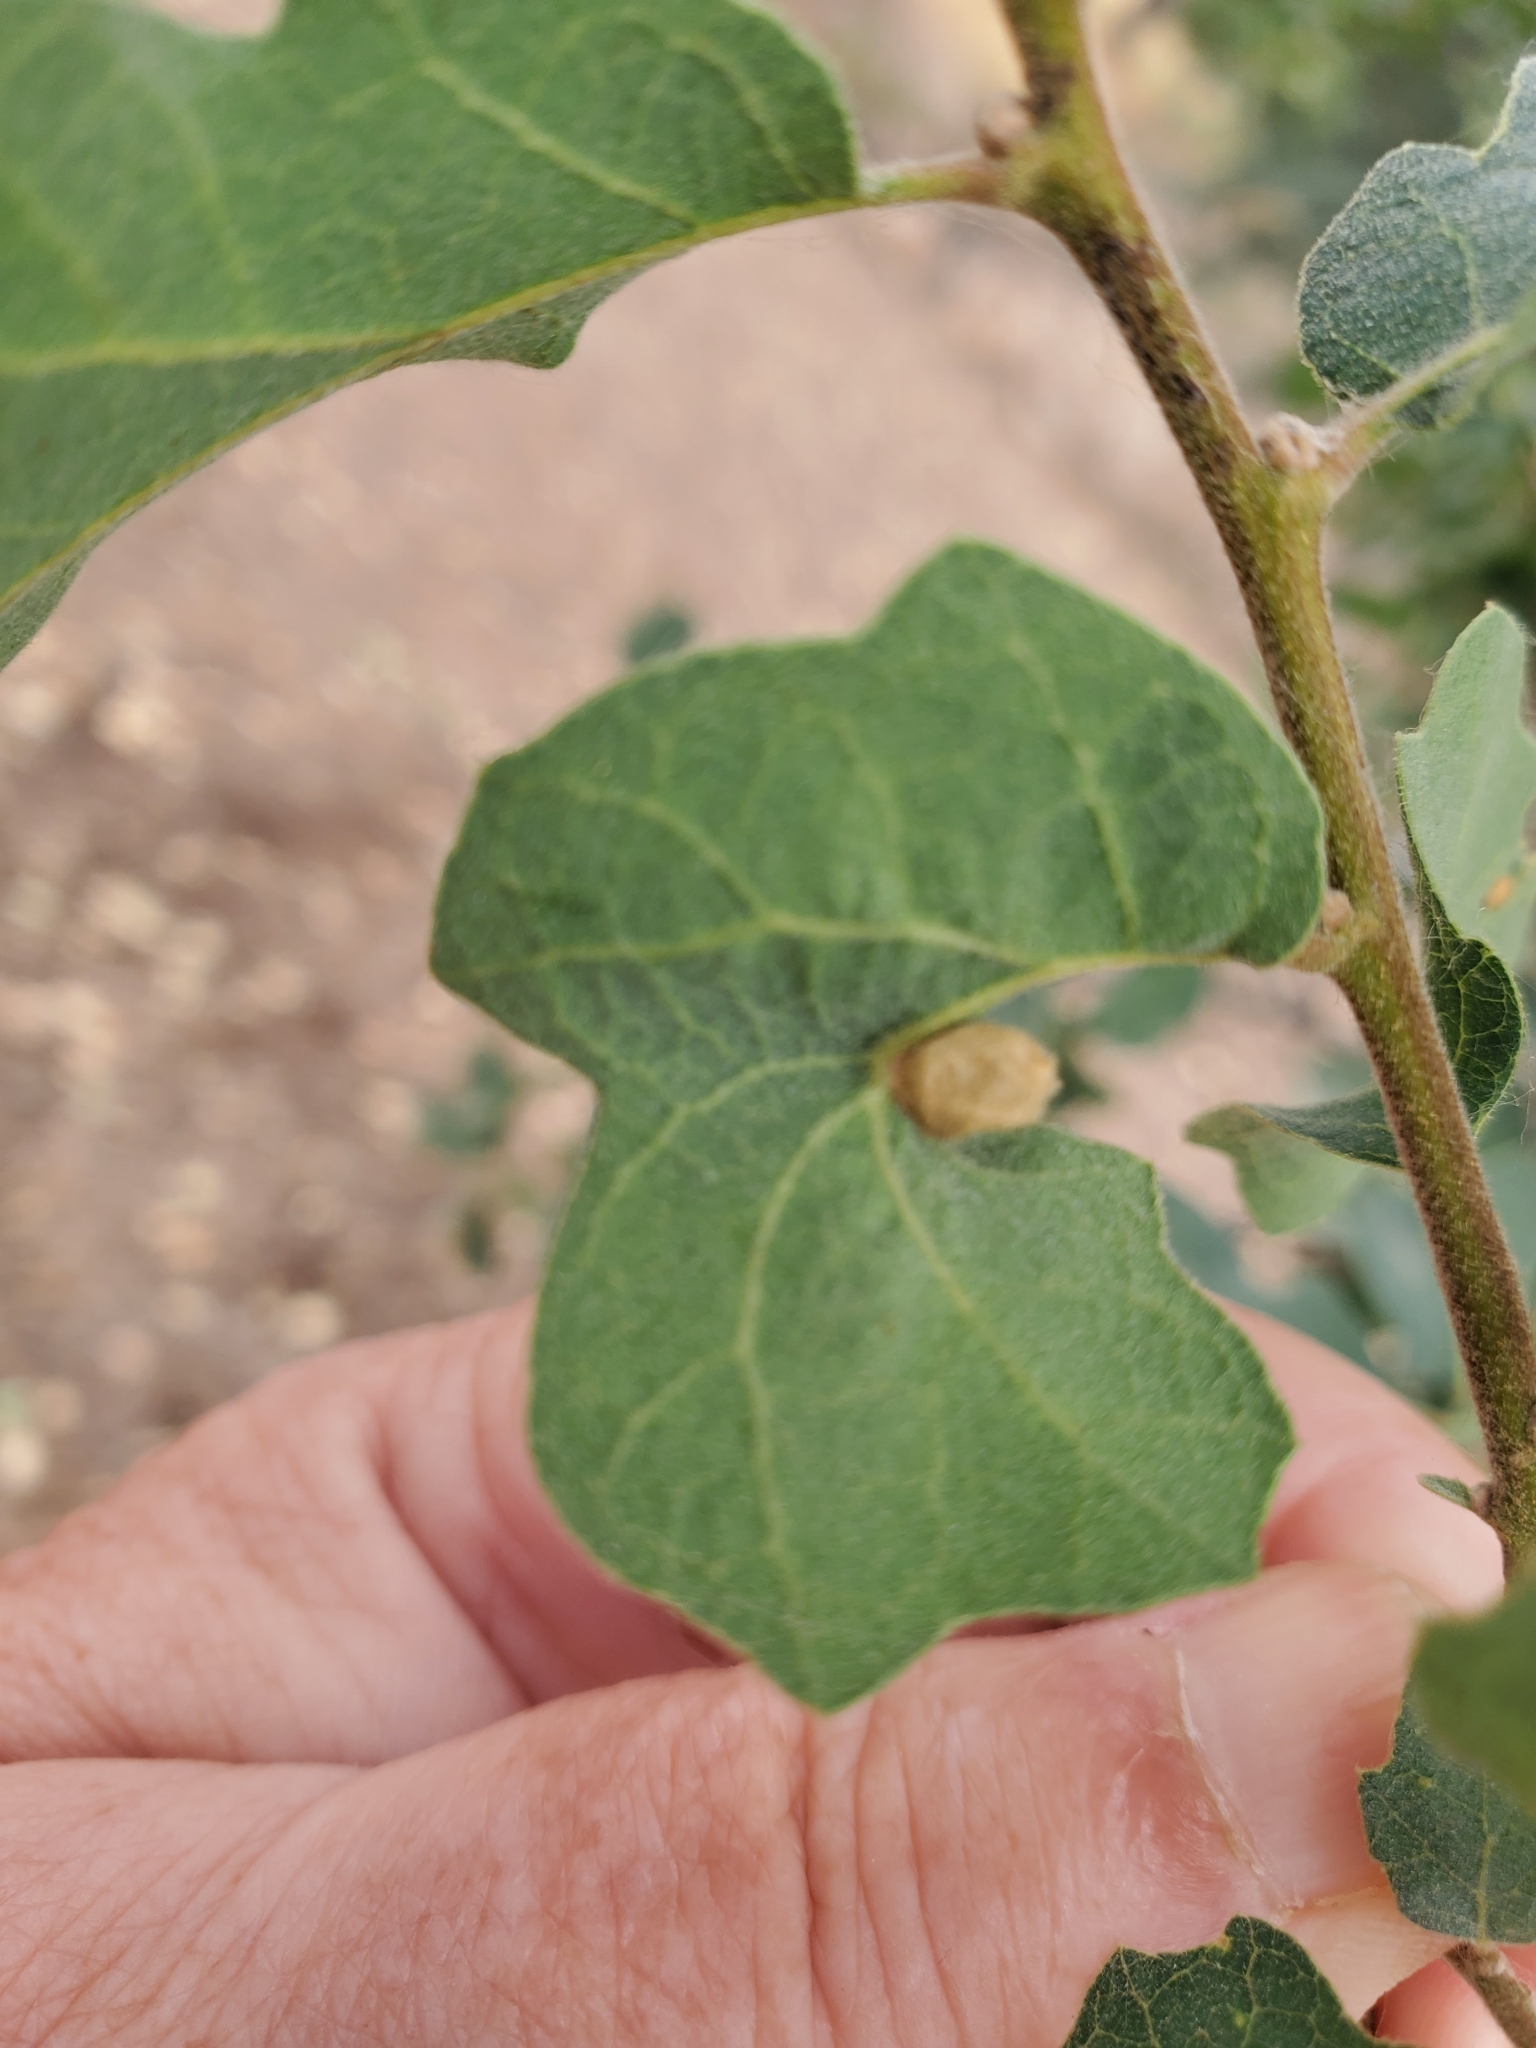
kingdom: Animalia
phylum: Arthropoda
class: Insecta
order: Hymenoptera
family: Cynipidae
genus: Andricus
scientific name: Andricus
